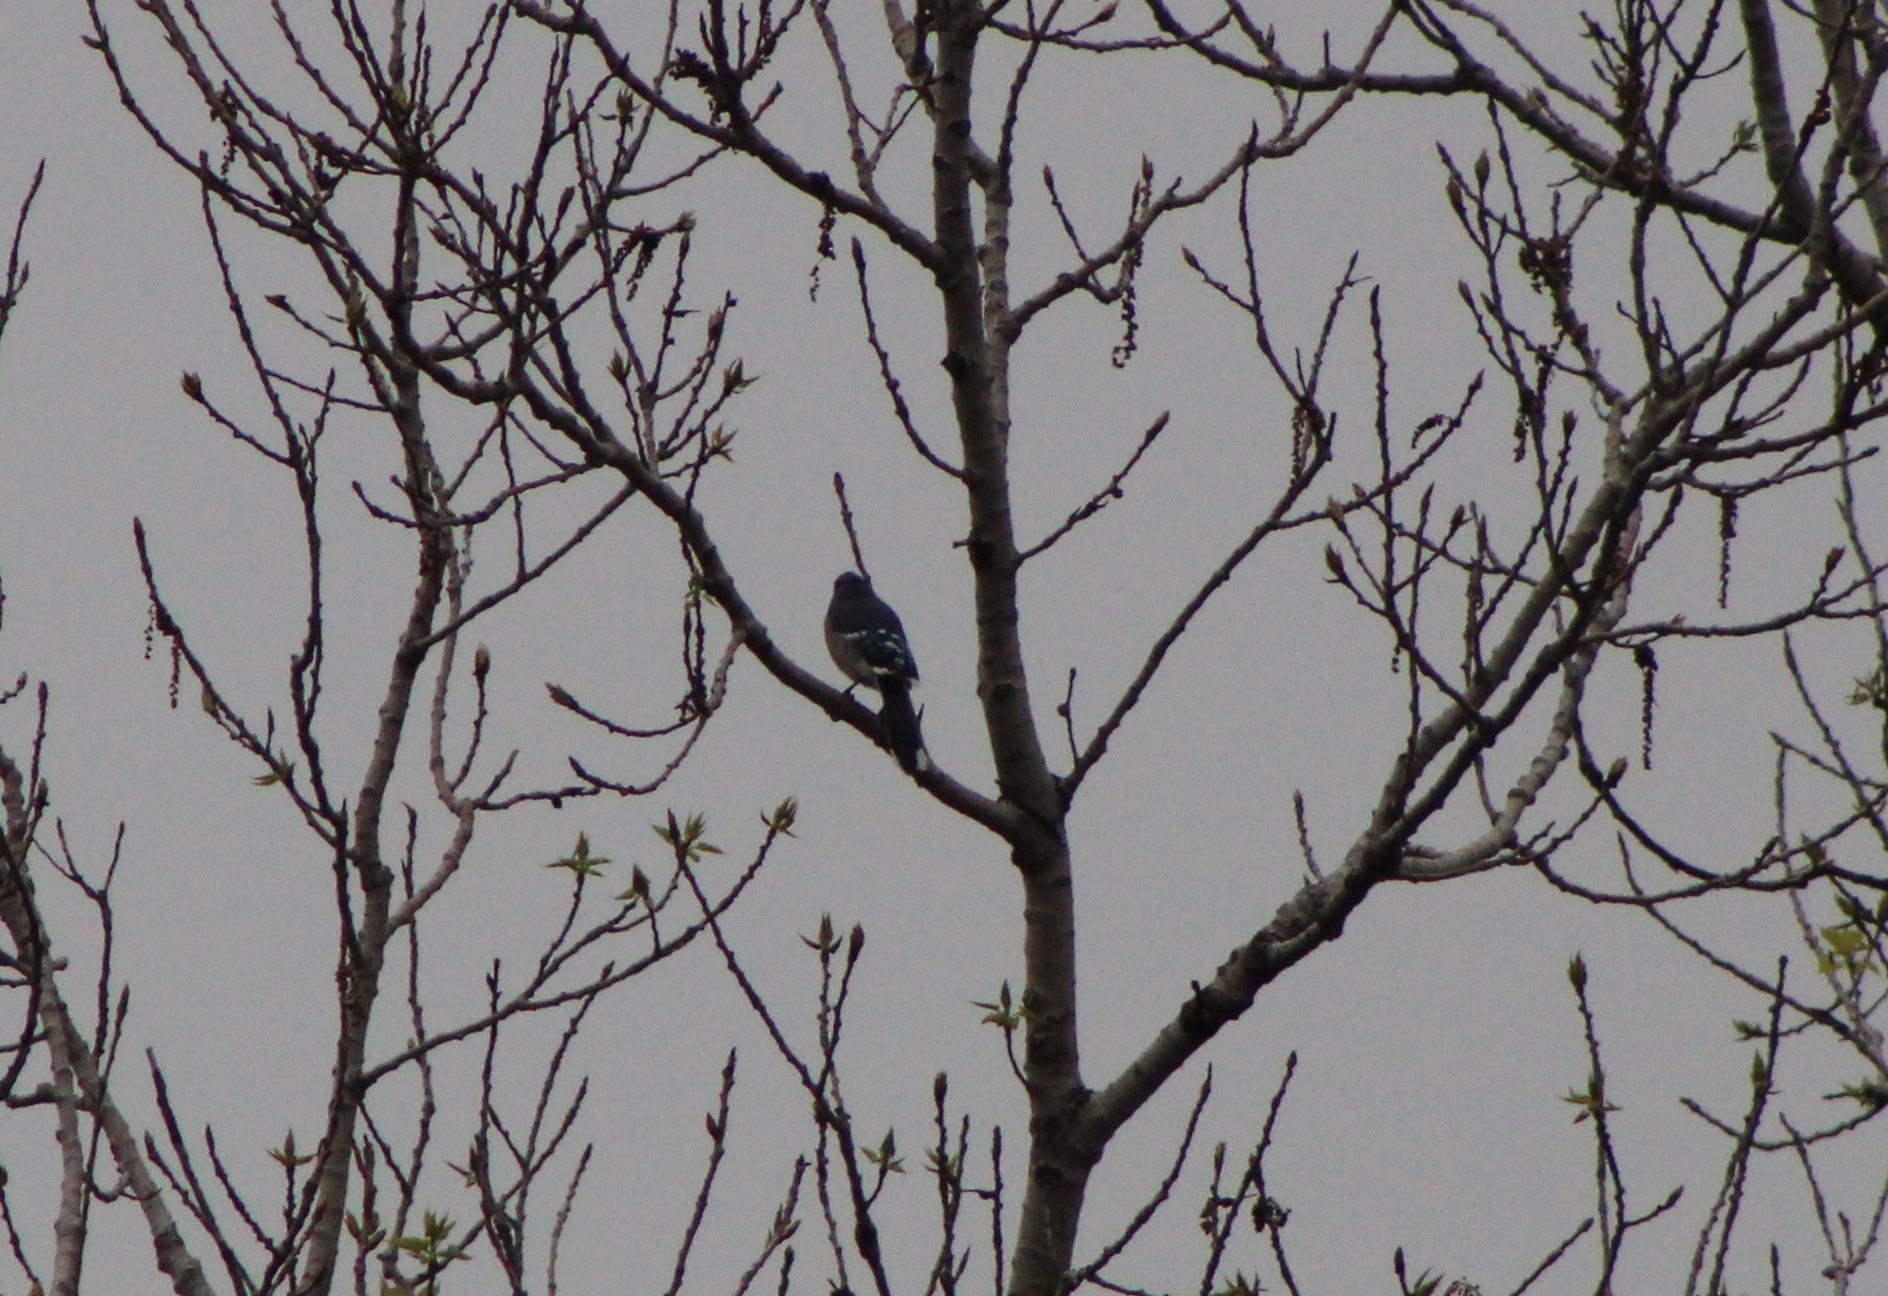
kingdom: Animalia
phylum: Chordata
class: Aves
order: Passeriformes
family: Corvidae
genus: Cyanocitta
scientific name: Cyanocitta cristata
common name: Blue jay
